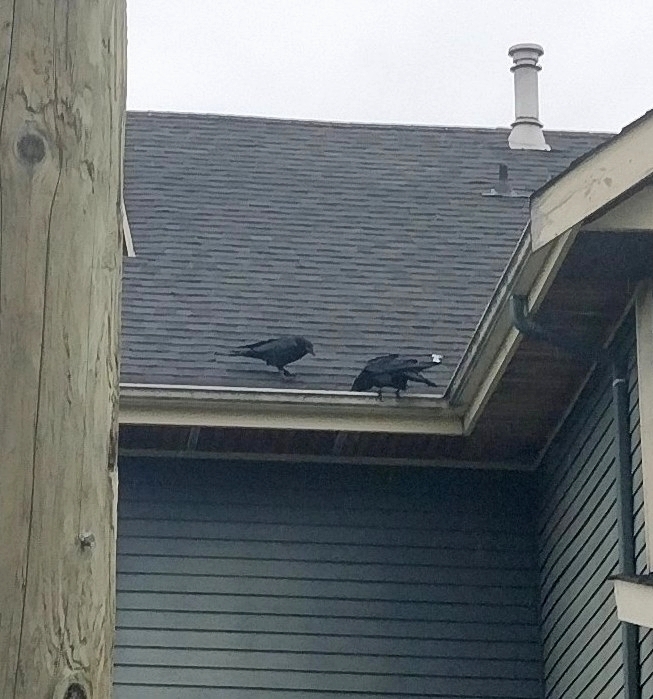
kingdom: Animalia
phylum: Chordata
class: Aves
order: Passeriformes
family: Corvidae
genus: Corvus
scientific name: Corvus corax
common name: Common raven
